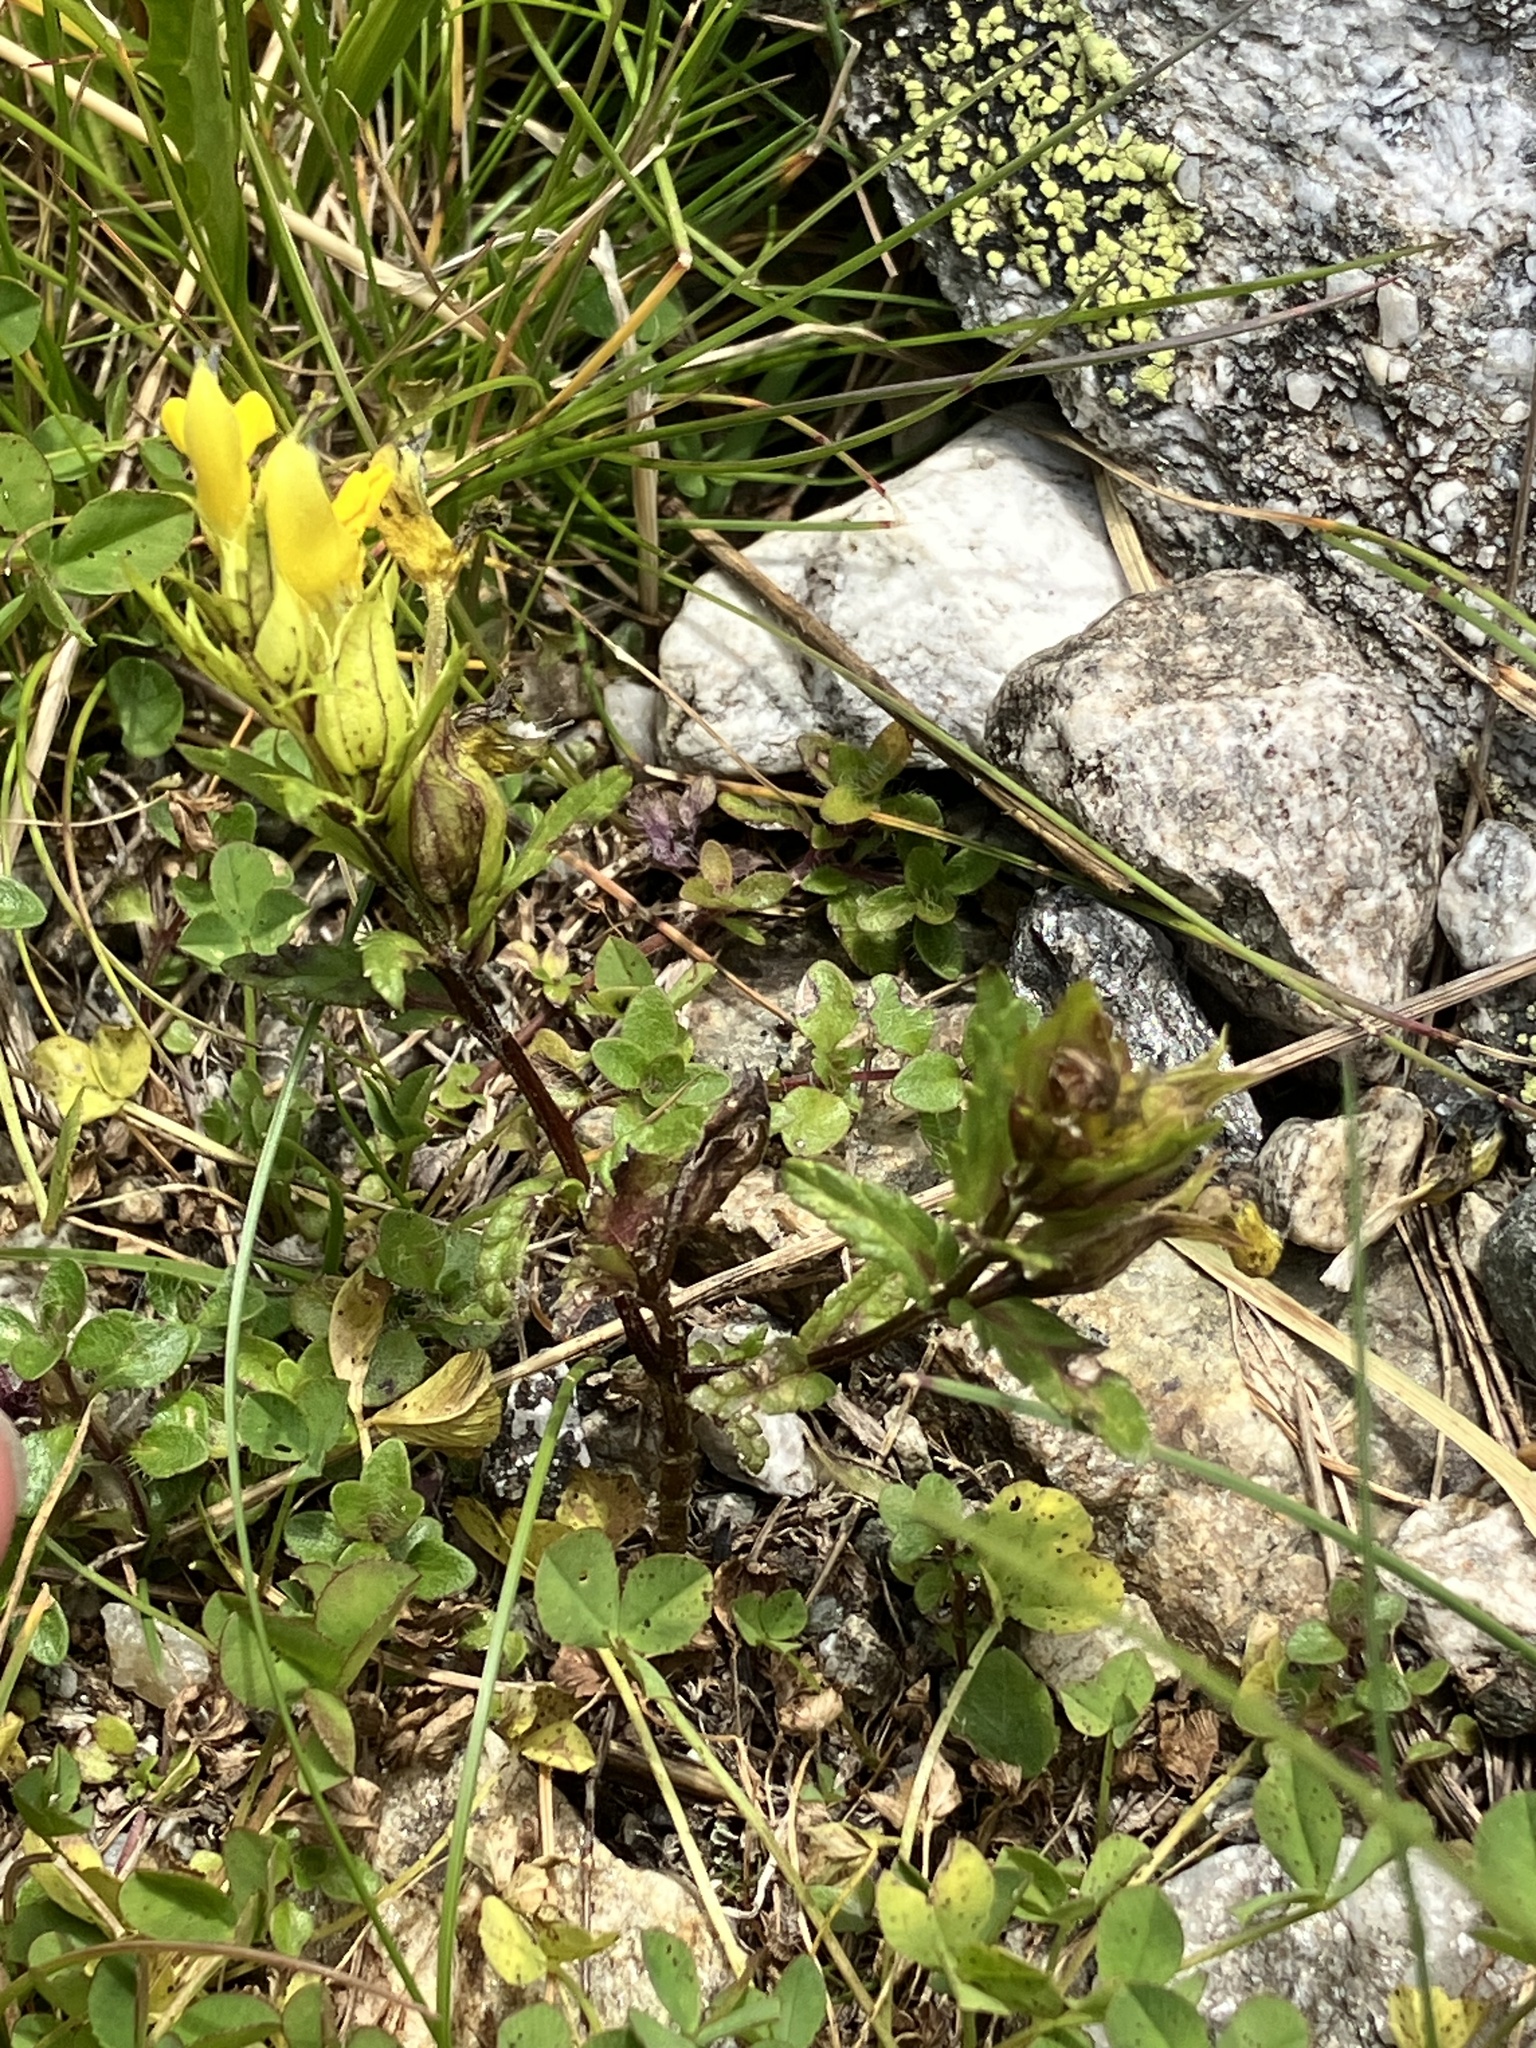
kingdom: Plantae
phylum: Tracheophyta
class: Magnoliopsida
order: Lamiales
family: Orobanchaceae
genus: Rhinanthus
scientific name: Rhinanthus glacialis
